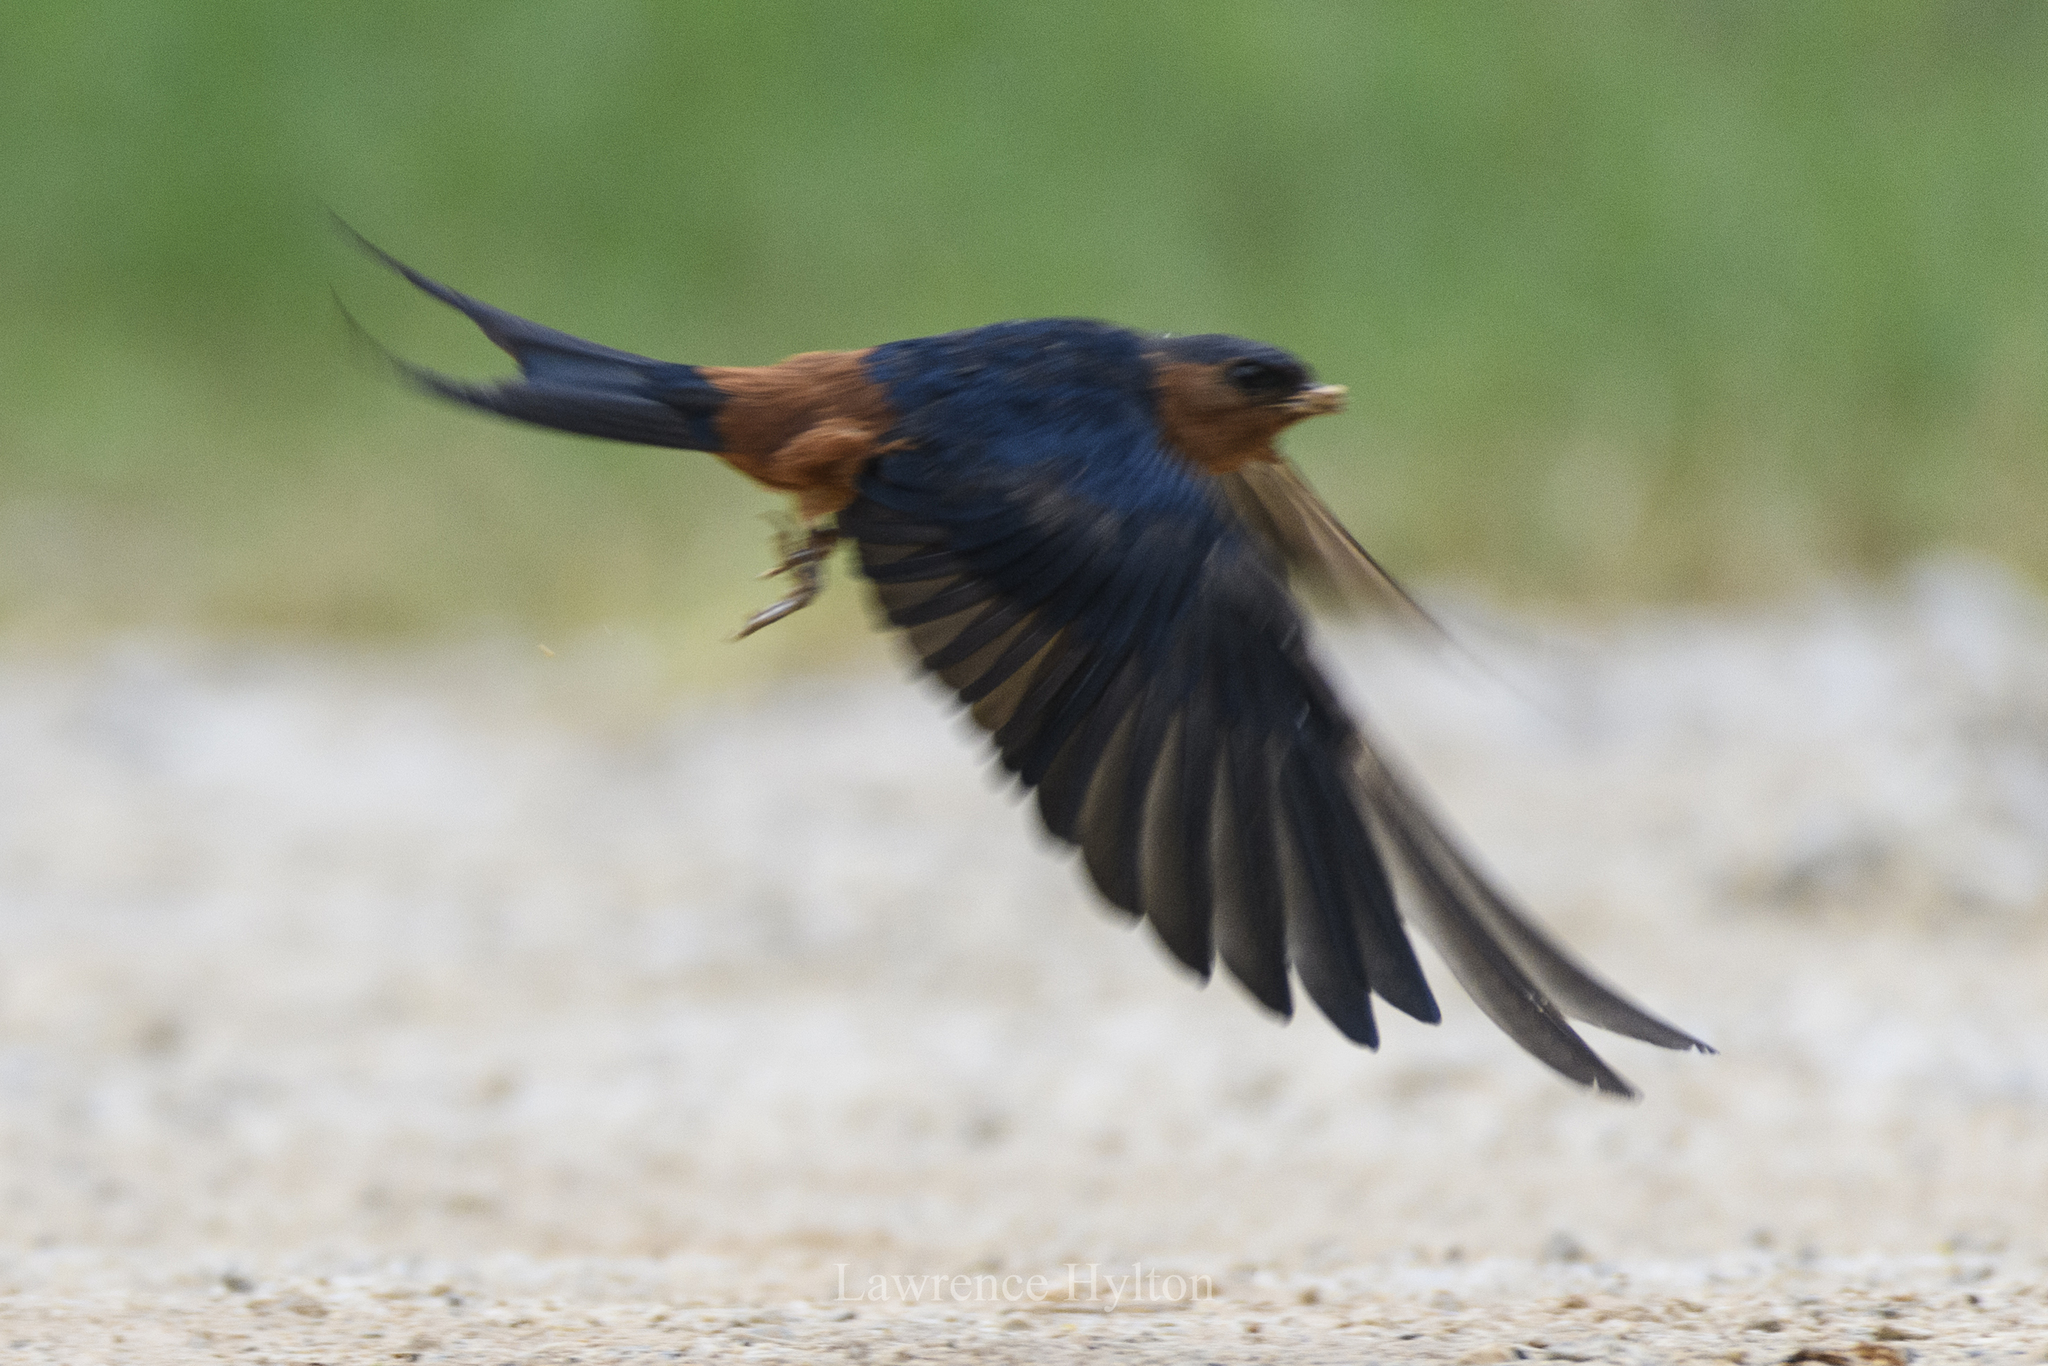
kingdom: Animalia
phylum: Chordata
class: Aves
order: Passeriformes
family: Hirundinidae
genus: Cecropis
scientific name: Cecropis badia
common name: Rufous-bellied swallow
